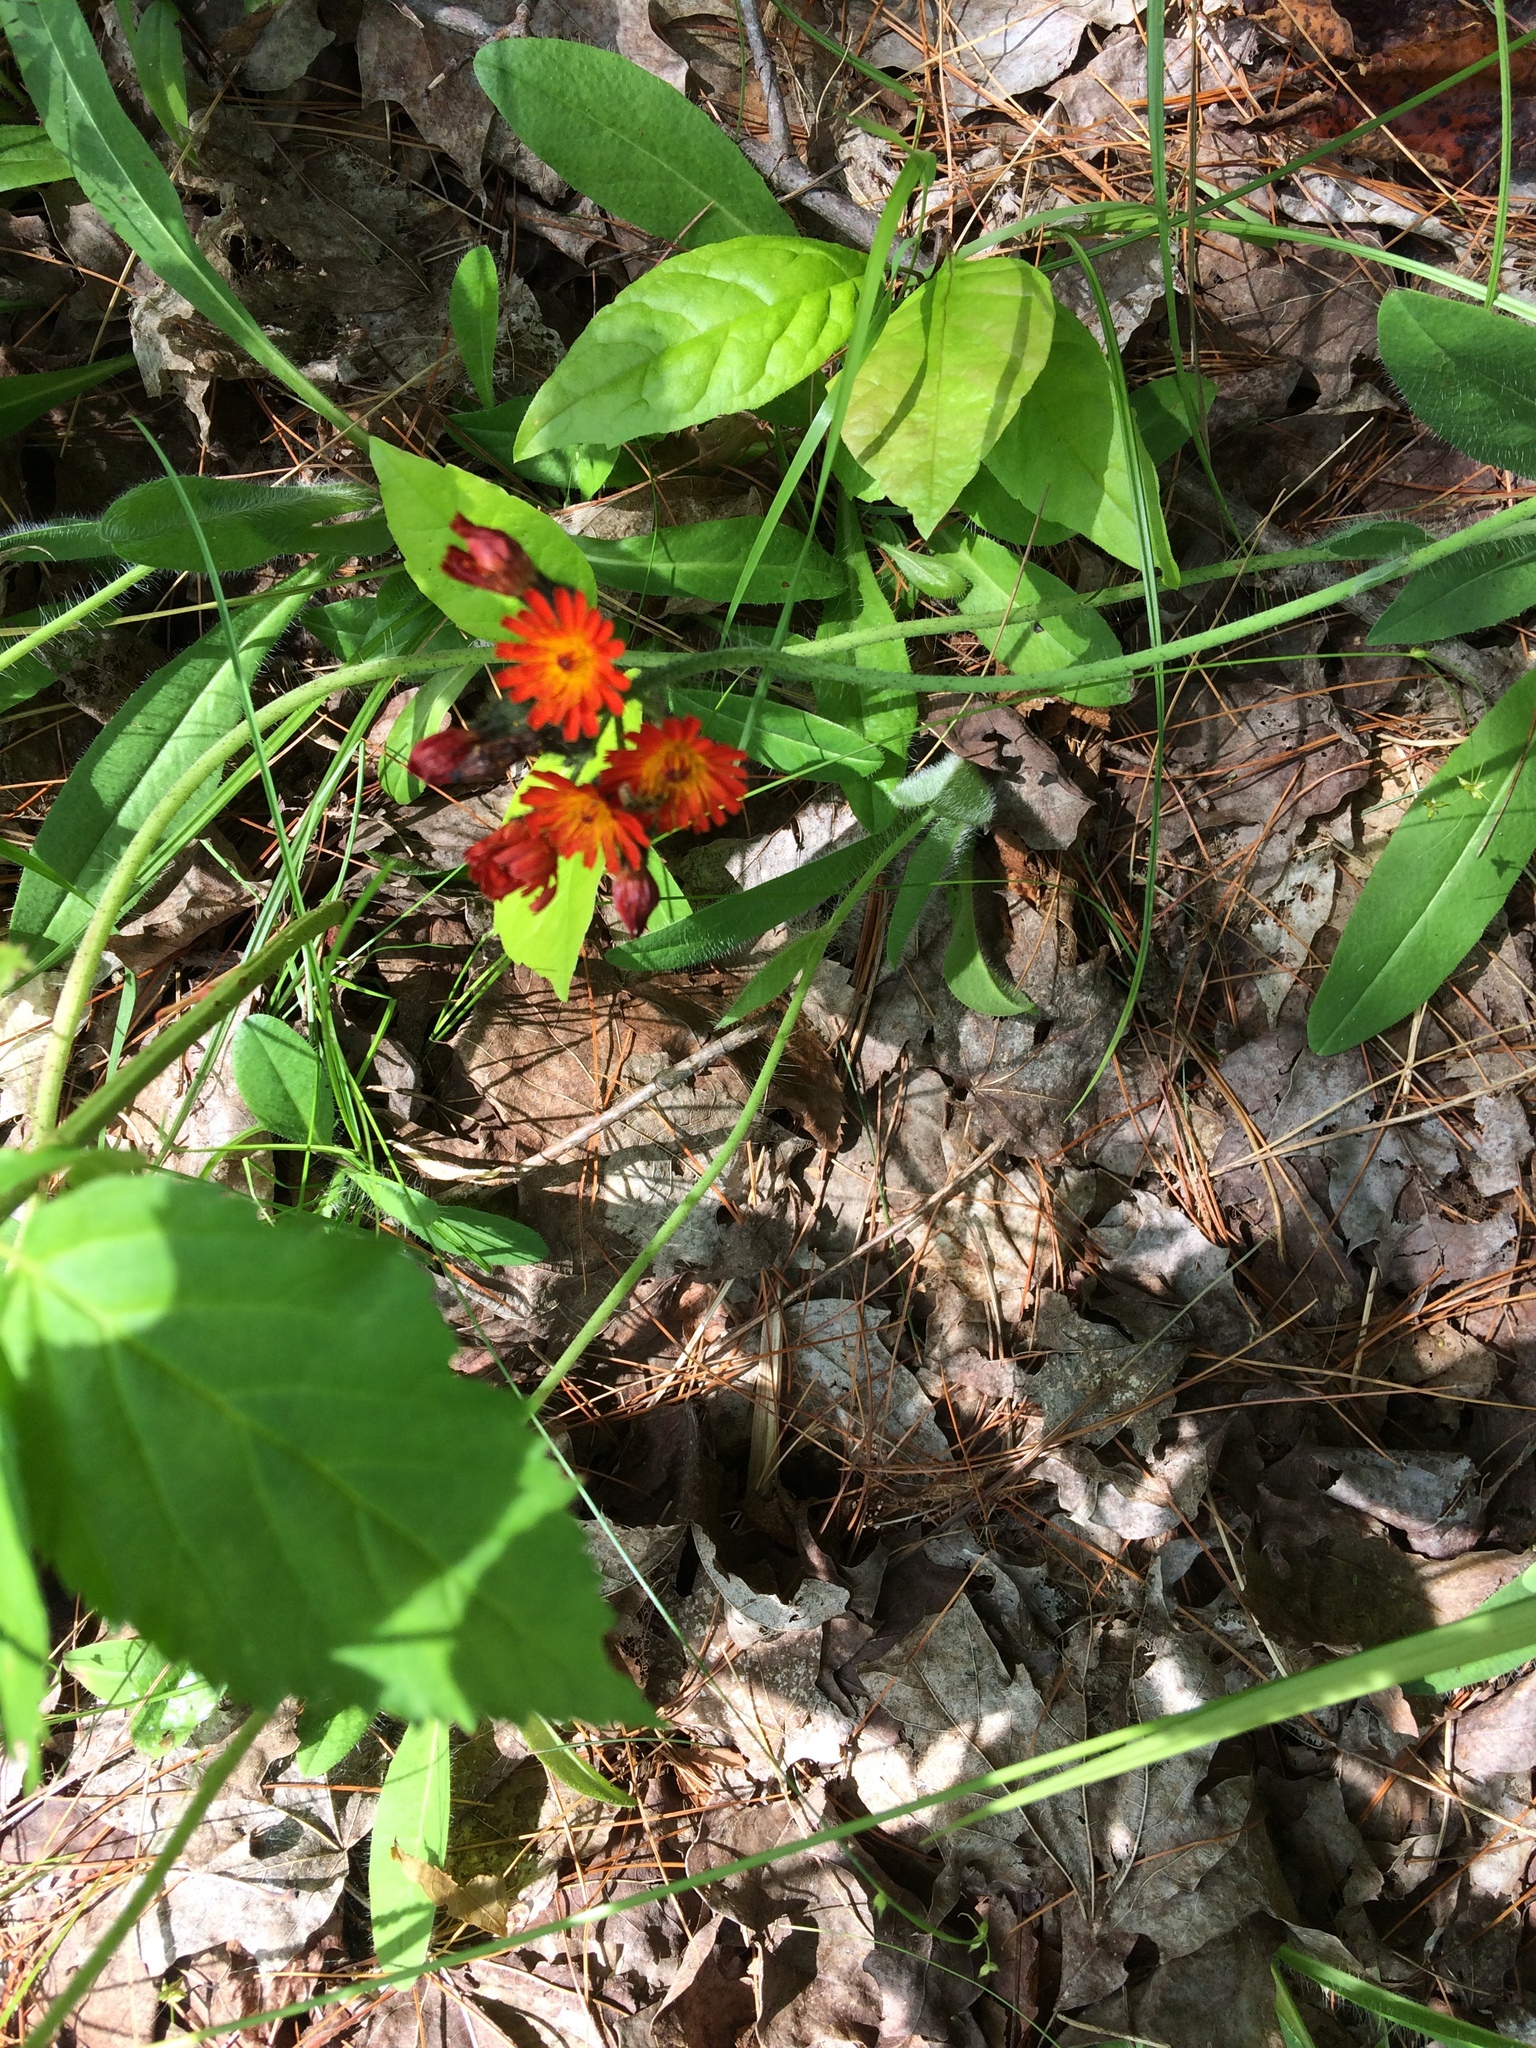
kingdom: Plantae
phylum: Tracheophyta
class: Magnoliopsida
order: Asterales
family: Asteraceae
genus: Pilosella
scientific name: Pilosella aurantiaca
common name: Fox-and-cubs
